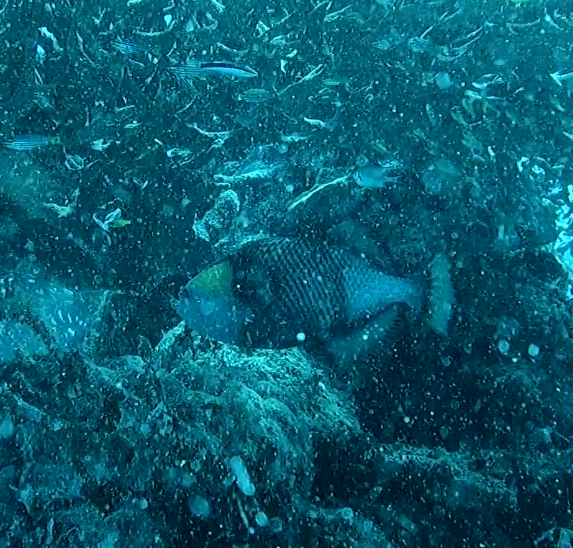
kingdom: Animalia
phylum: Chordata
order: Tetraodontiformes
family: Balistidae
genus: Balistoides
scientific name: Balistoides viridescens
